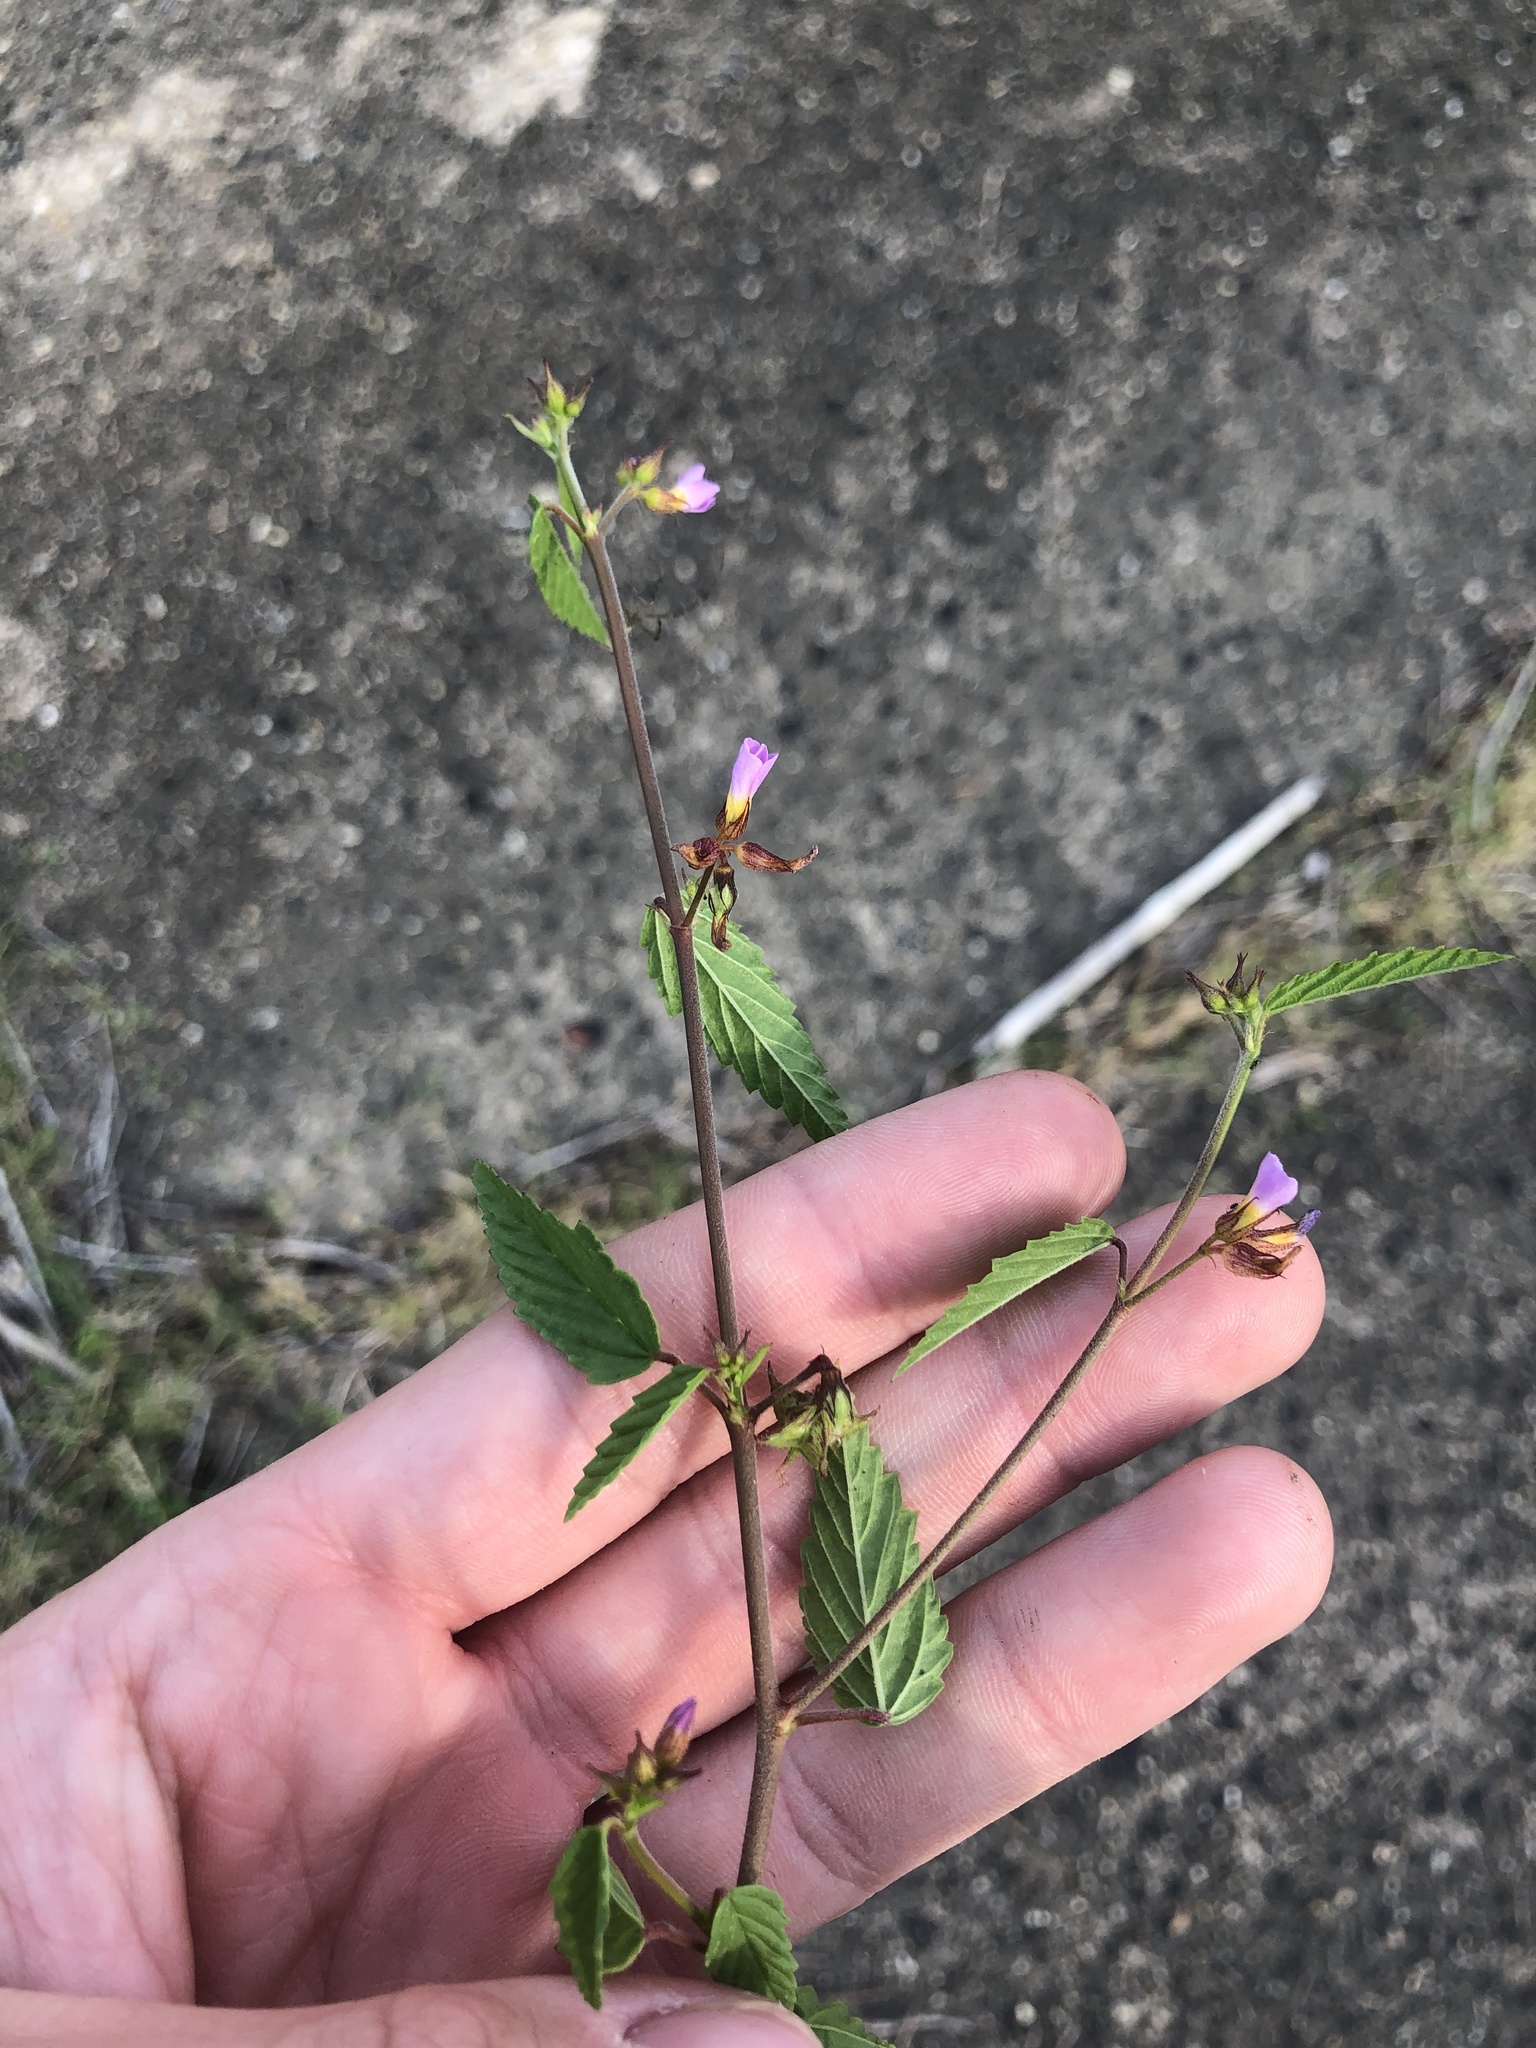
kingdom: Plantae
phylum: Tracheophyta
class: Magnoliopsida
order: Malvales
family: Malvaceae
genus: Melochia
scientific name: Melochia pyramidata
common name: Pyramidflower
